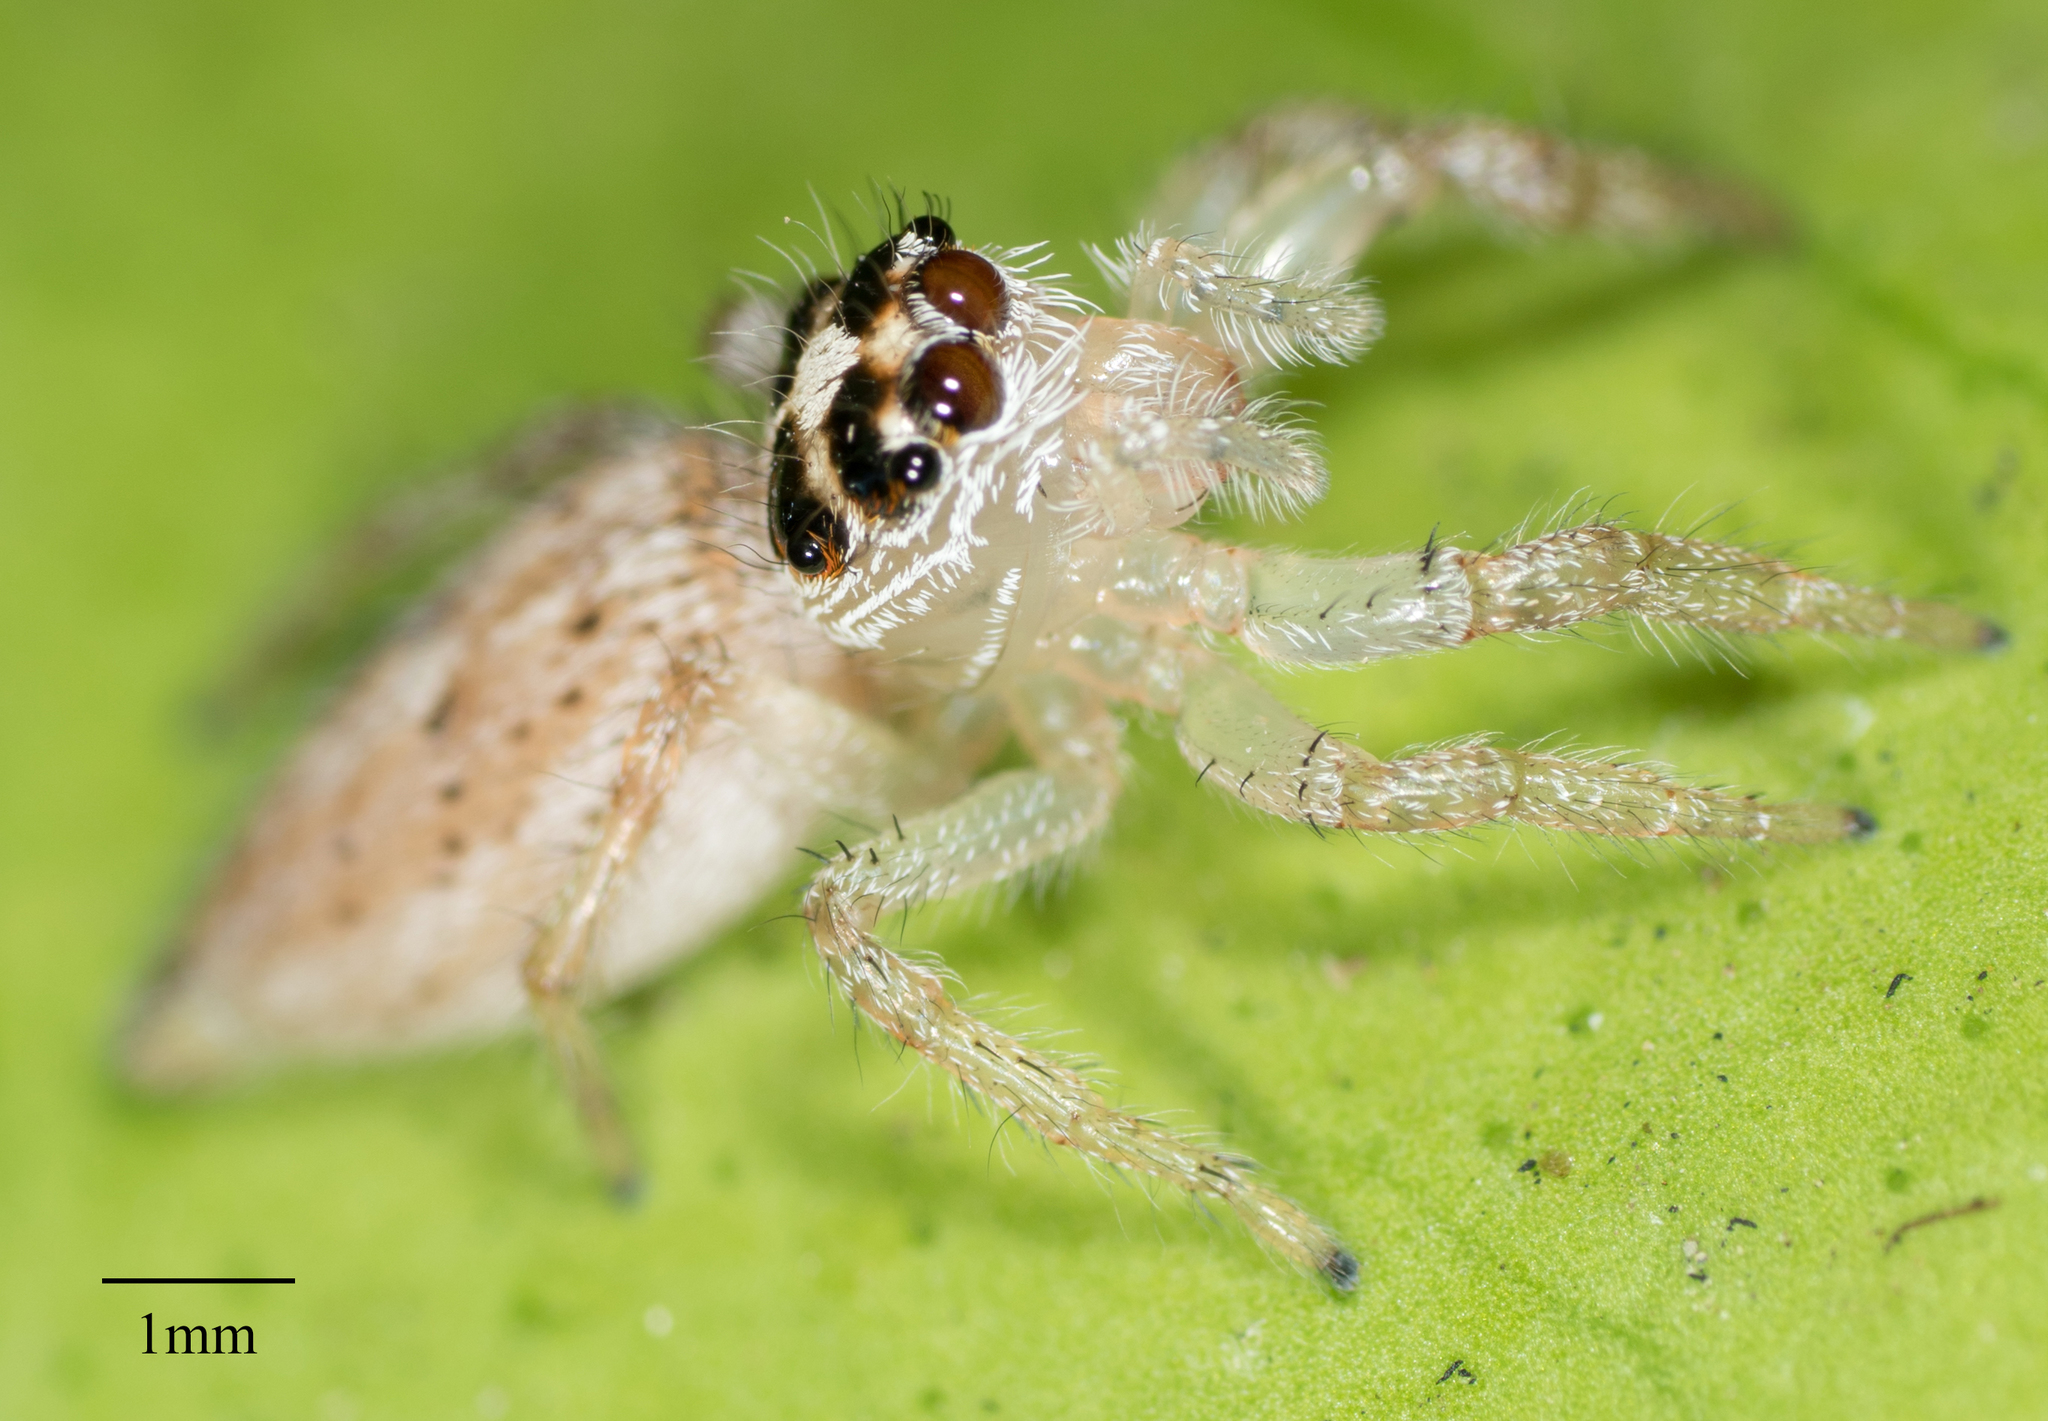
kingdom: Animalia
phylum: Arthropoda
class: Arachnida
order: Araneae
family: Salticidae
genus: Colonus
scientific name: Colonus hesperus
